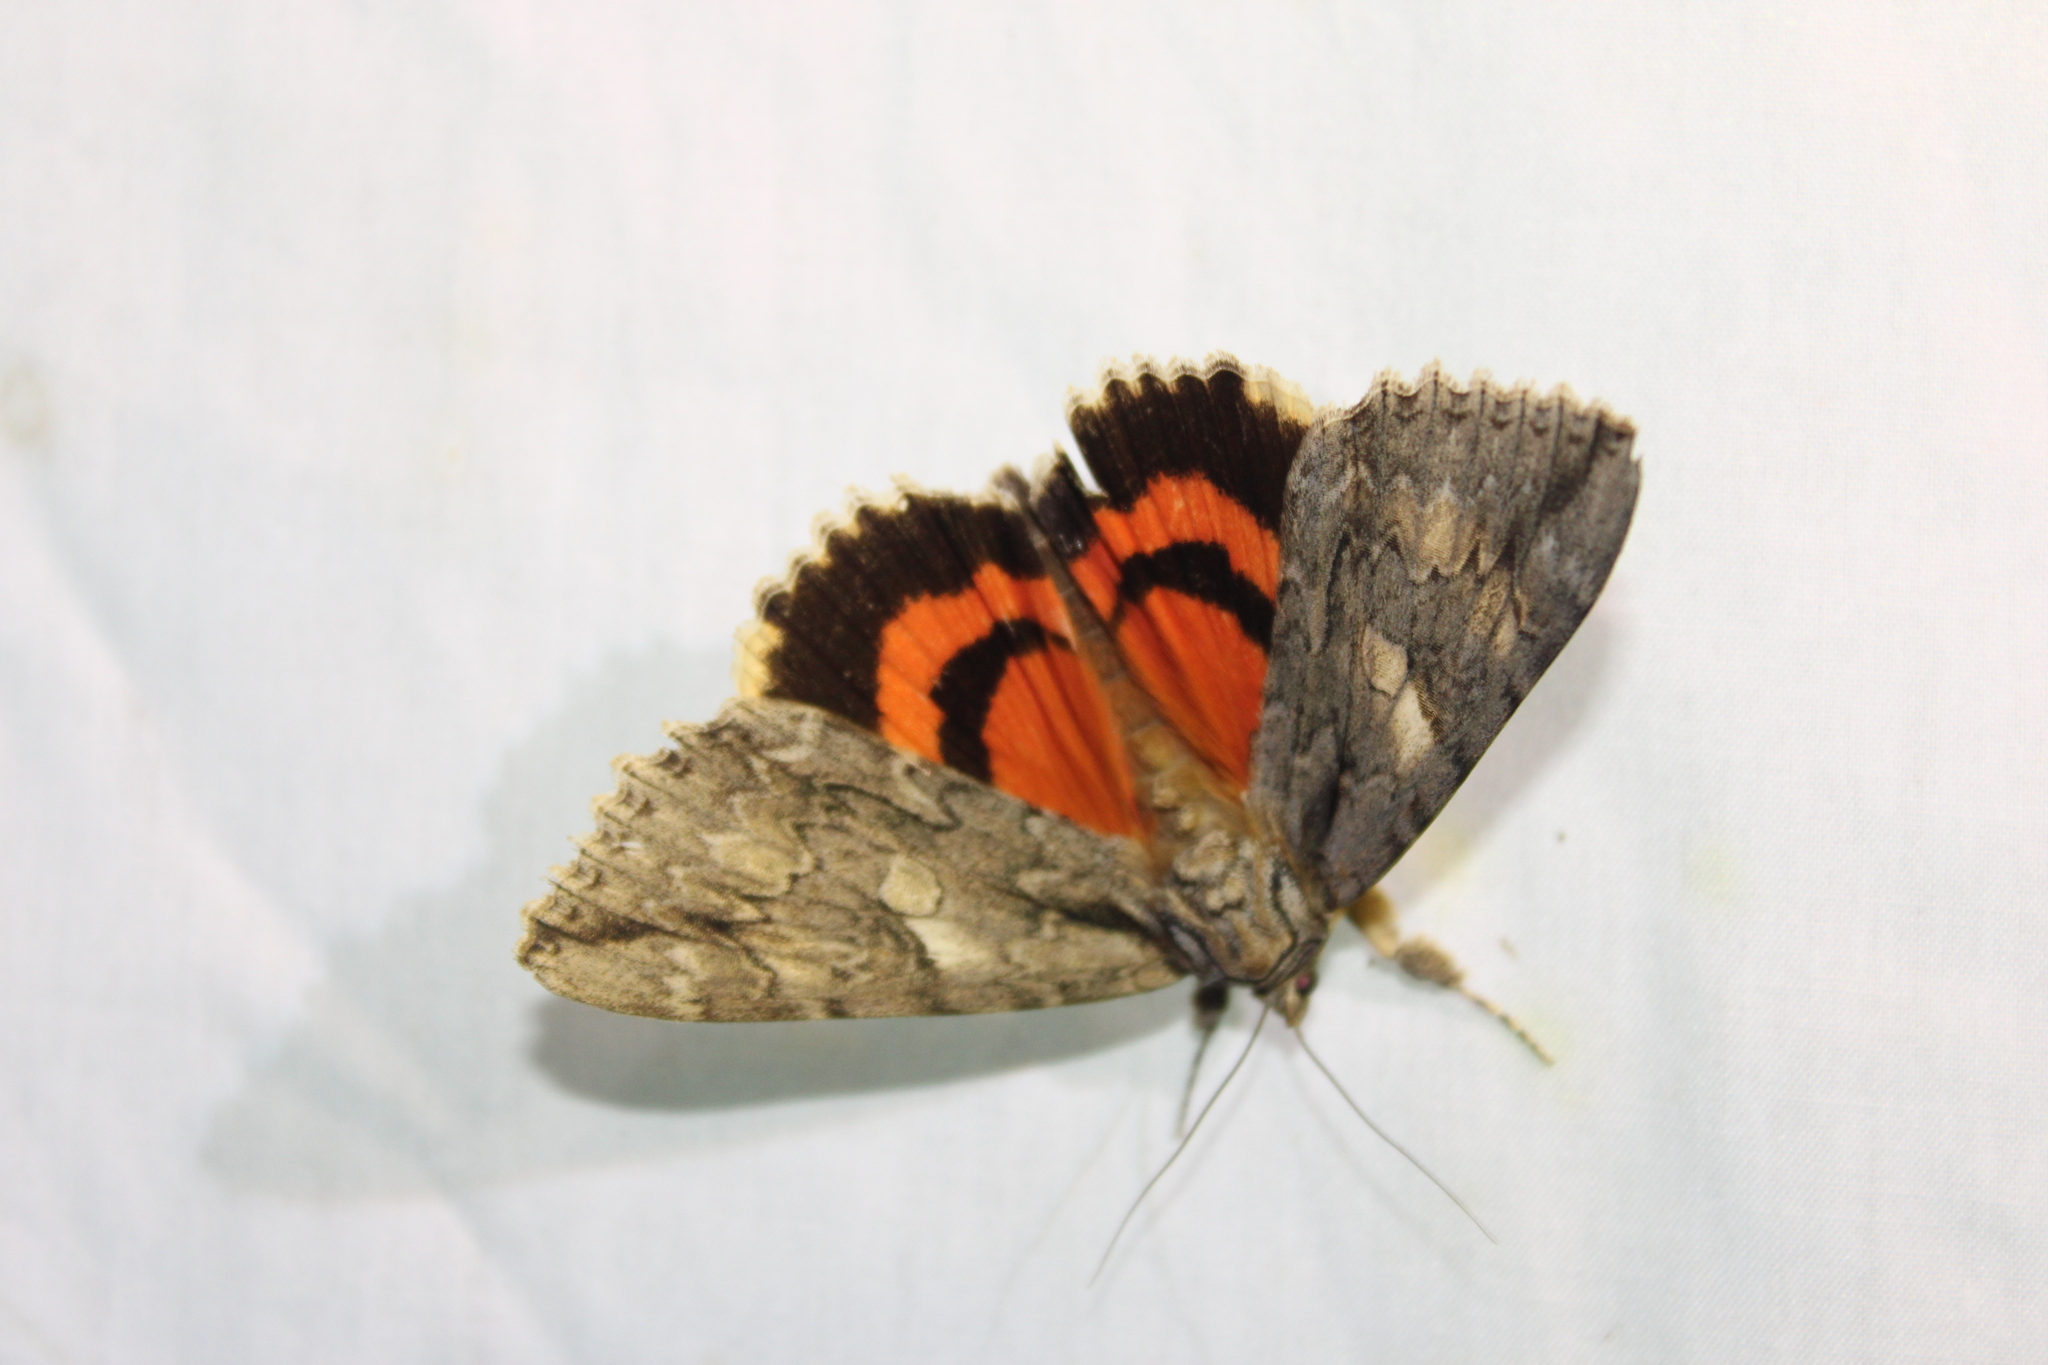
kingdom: Animalia
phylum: Arthropoda
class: Insecta
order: Lepidoptera
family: Erebidae
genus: Catocala
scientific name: Catocala parta
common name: Mother underwing
